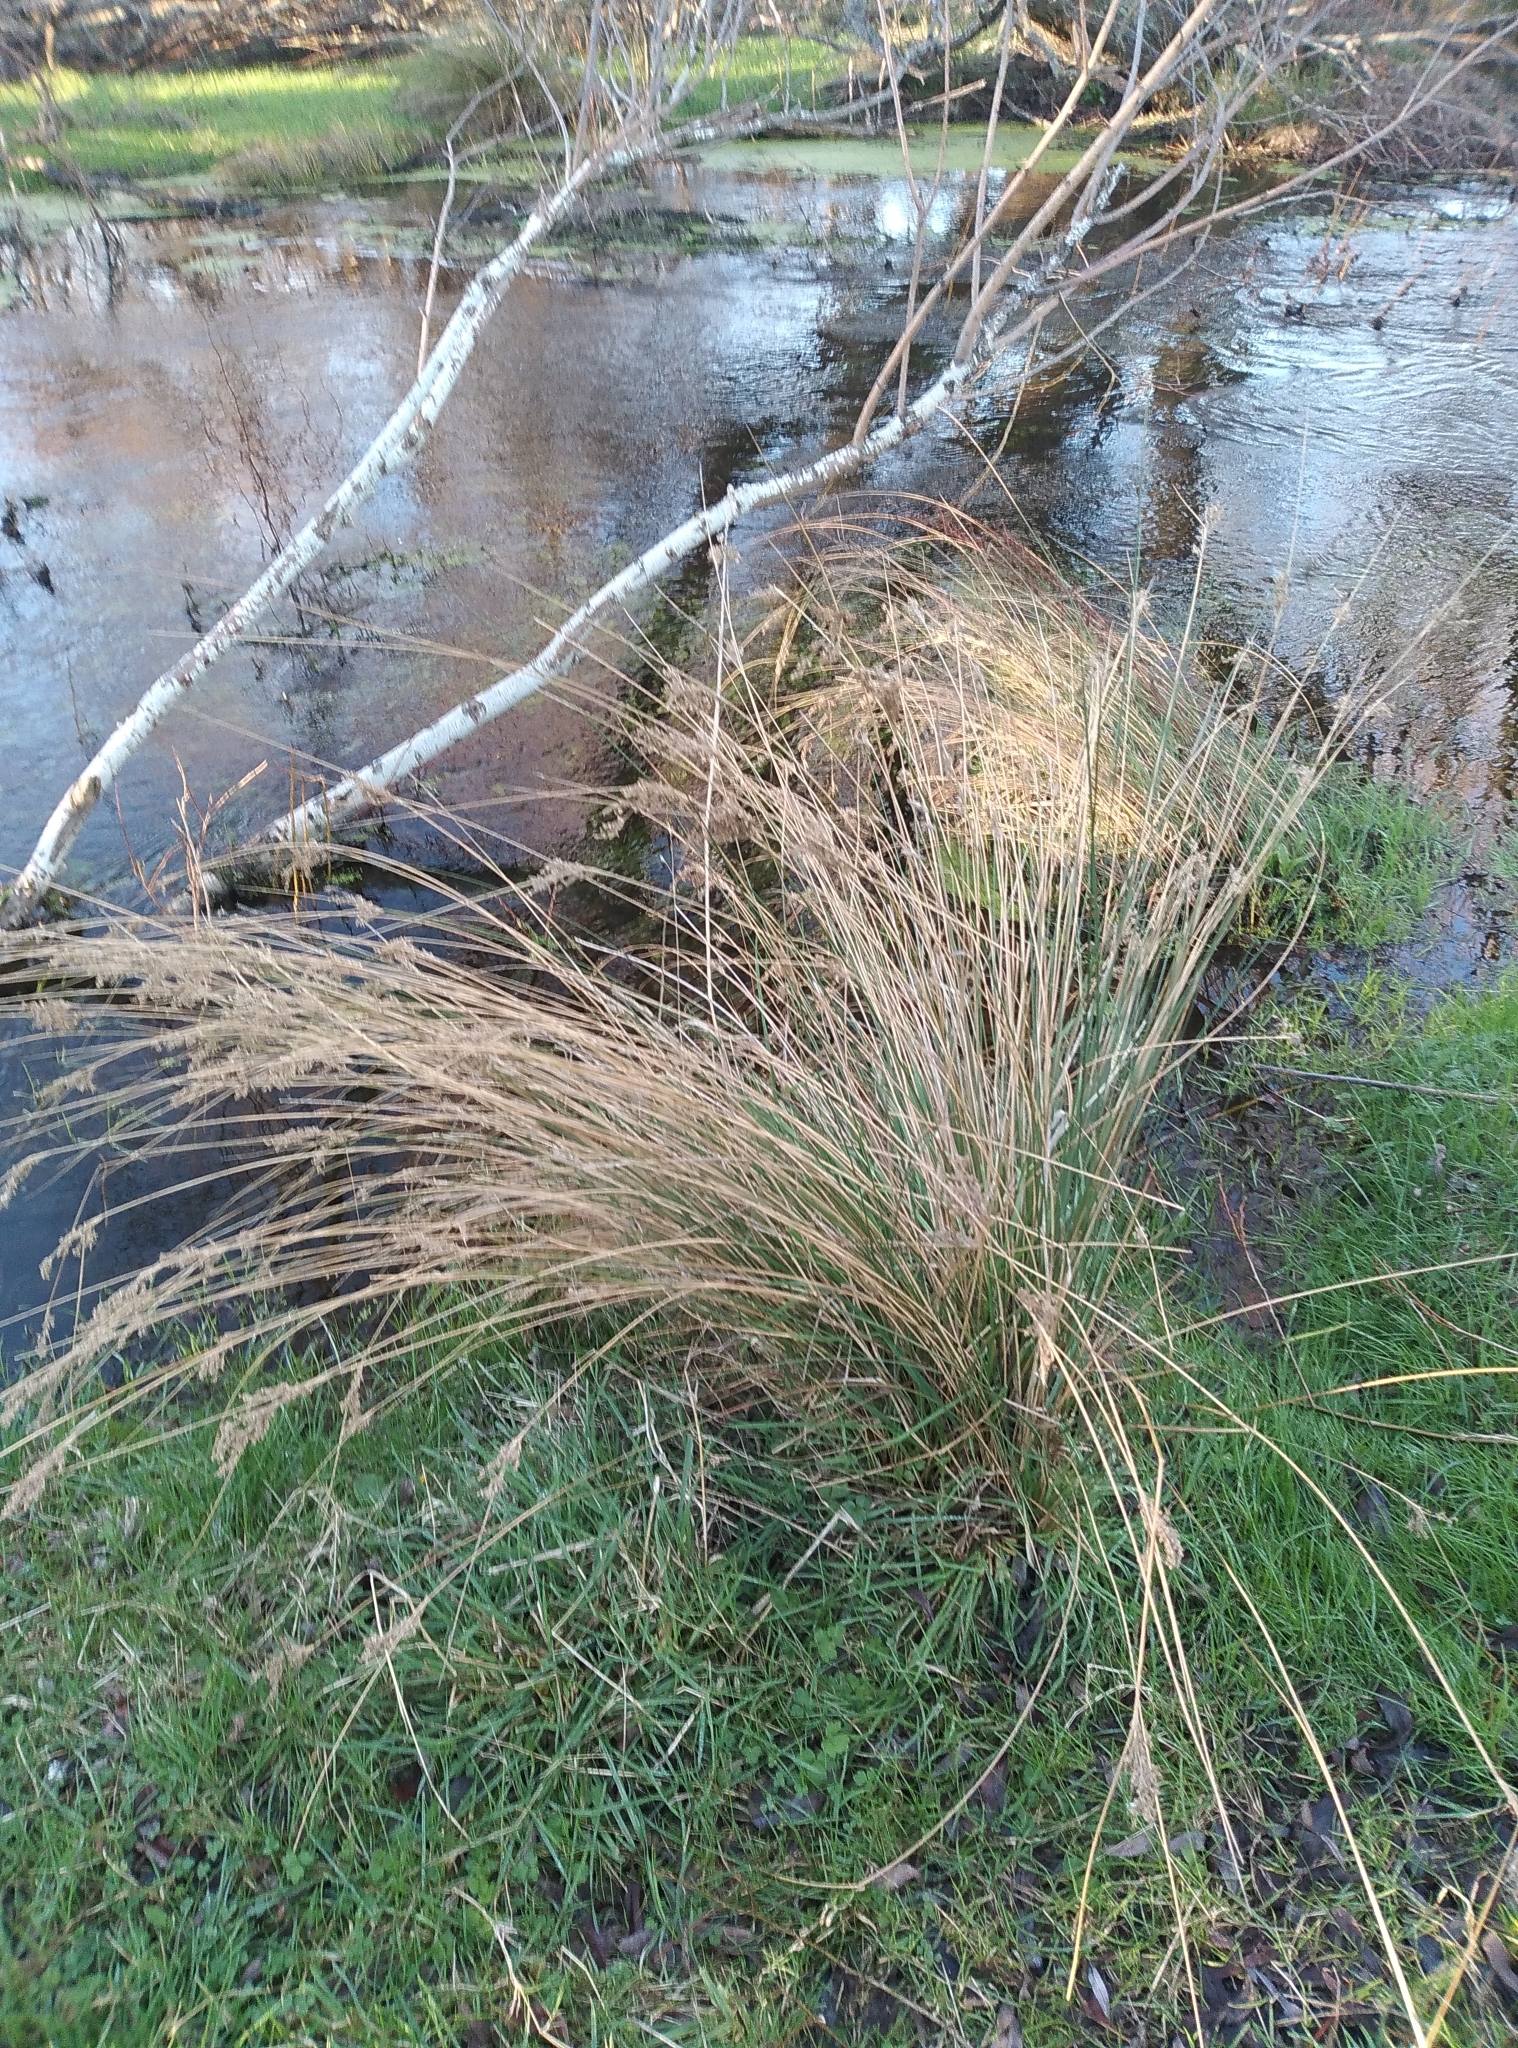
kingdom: Plantae
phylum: Tracheophyta
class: Liliopsida
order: Poales
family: Juncaceae
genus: Juncus
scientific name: Juncus sarophorus
